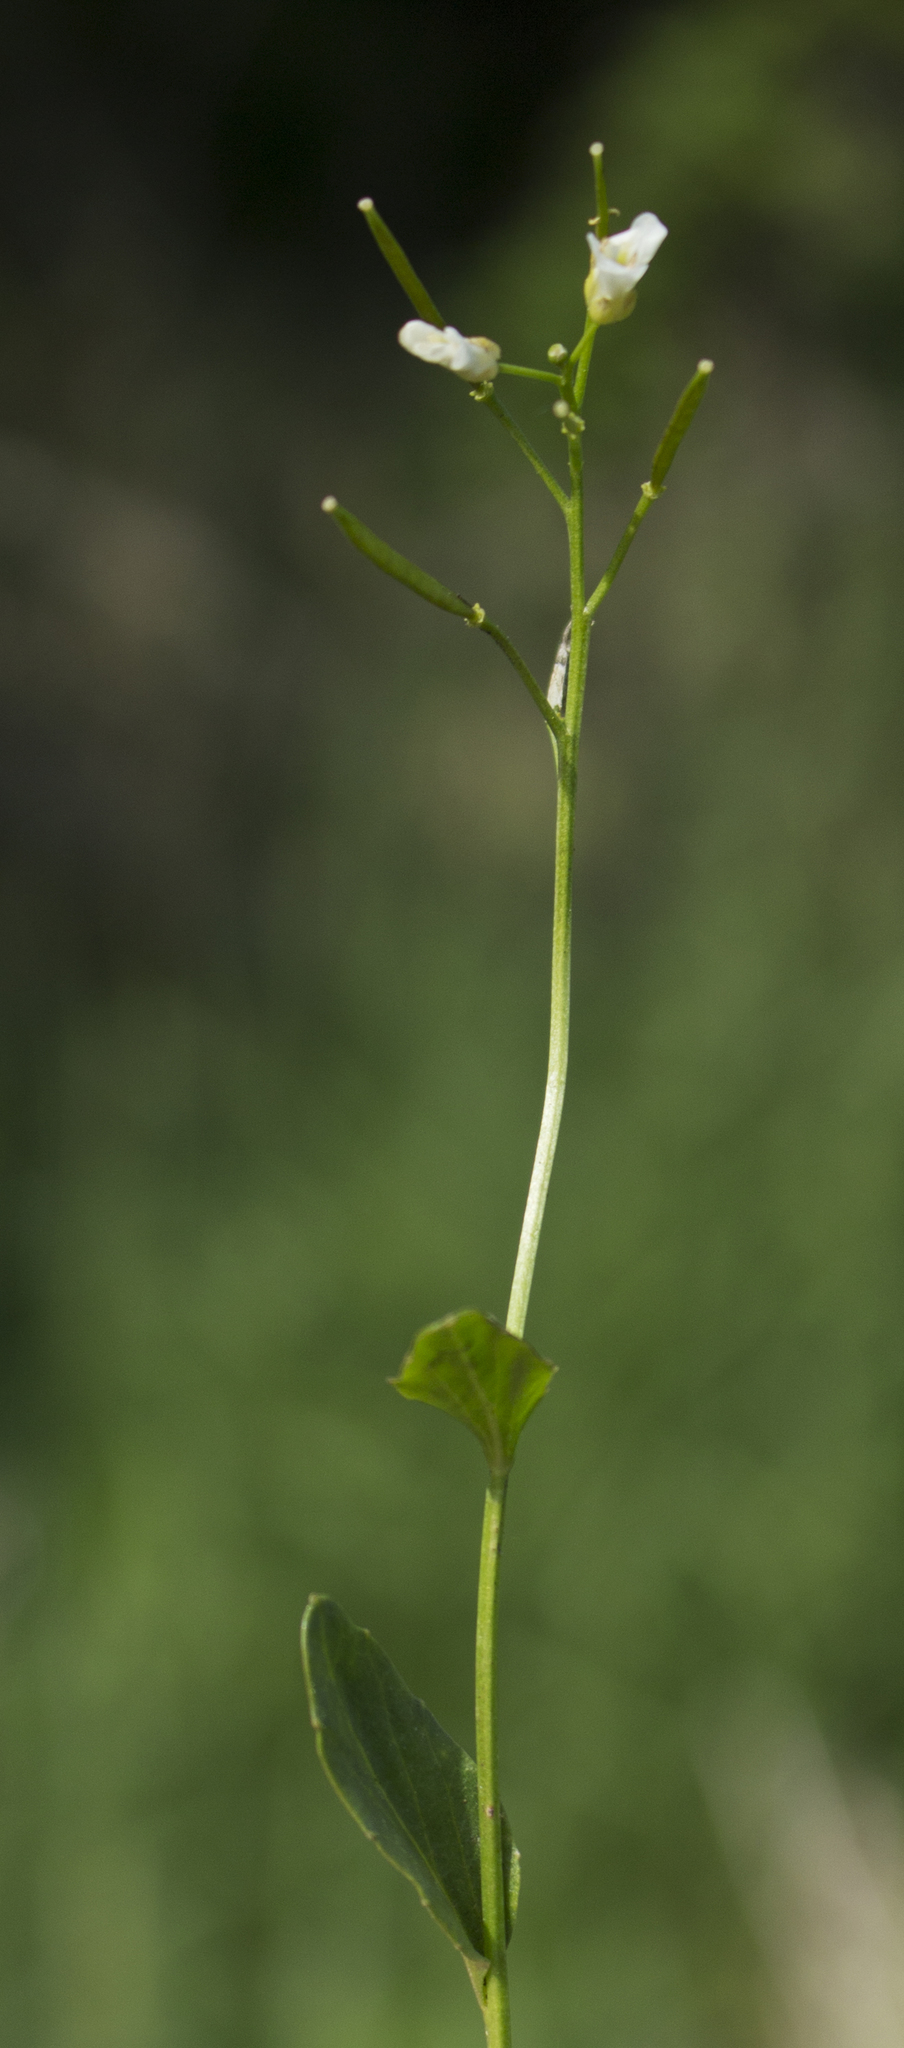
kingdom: Plantae
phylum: Tracheophyta
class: Magnoliopsida
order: Brassicales
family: Brassicaceae
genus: Cardamine
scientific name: Cardamine bulbosa
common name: Spring cress
